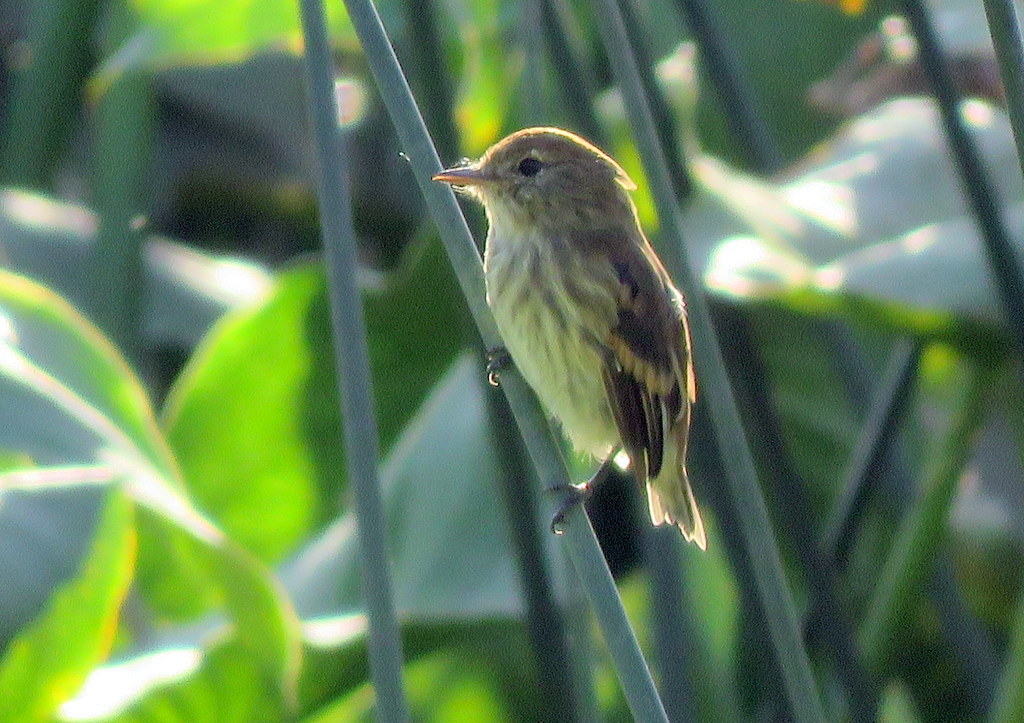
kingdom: Animalia
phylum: Chordata
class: Aves
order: Passeriformes
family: Tyrannidae
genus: Myiophobus
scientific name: Myiophobus fasciatus
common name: Bran-colored flycatcher
